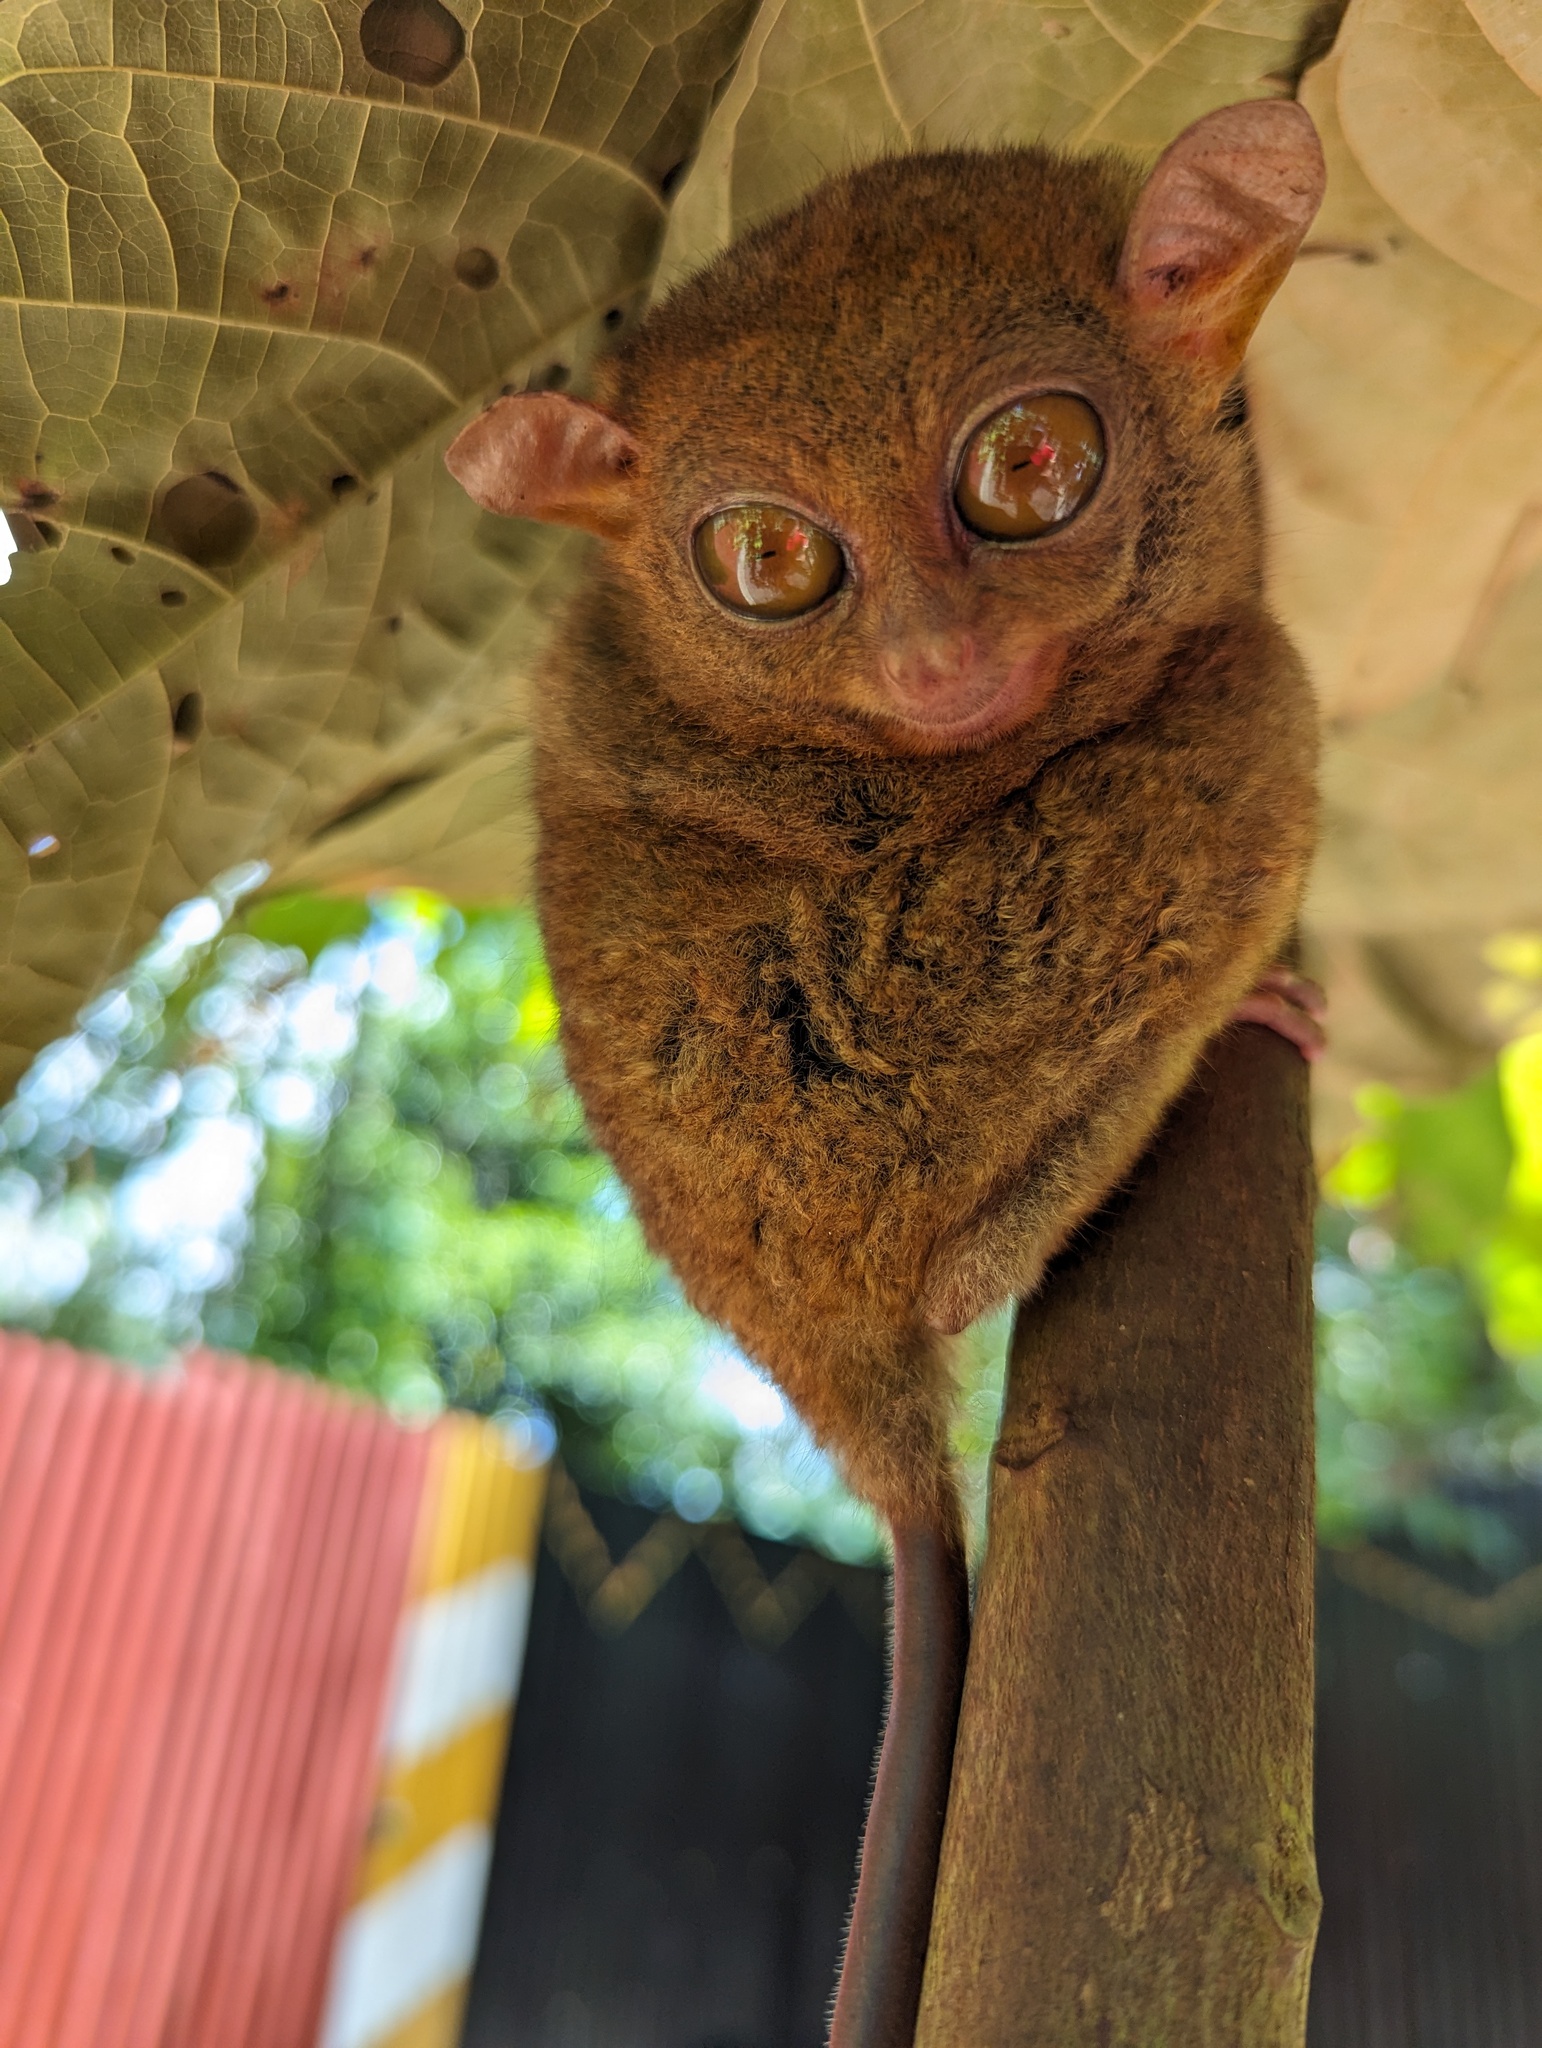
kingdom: Animalia
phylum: Chordata
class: Mammalia
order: Primates
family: Tarsiidae
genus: Carlito
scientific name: Carlito syrichta
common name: Philippine tarsier
